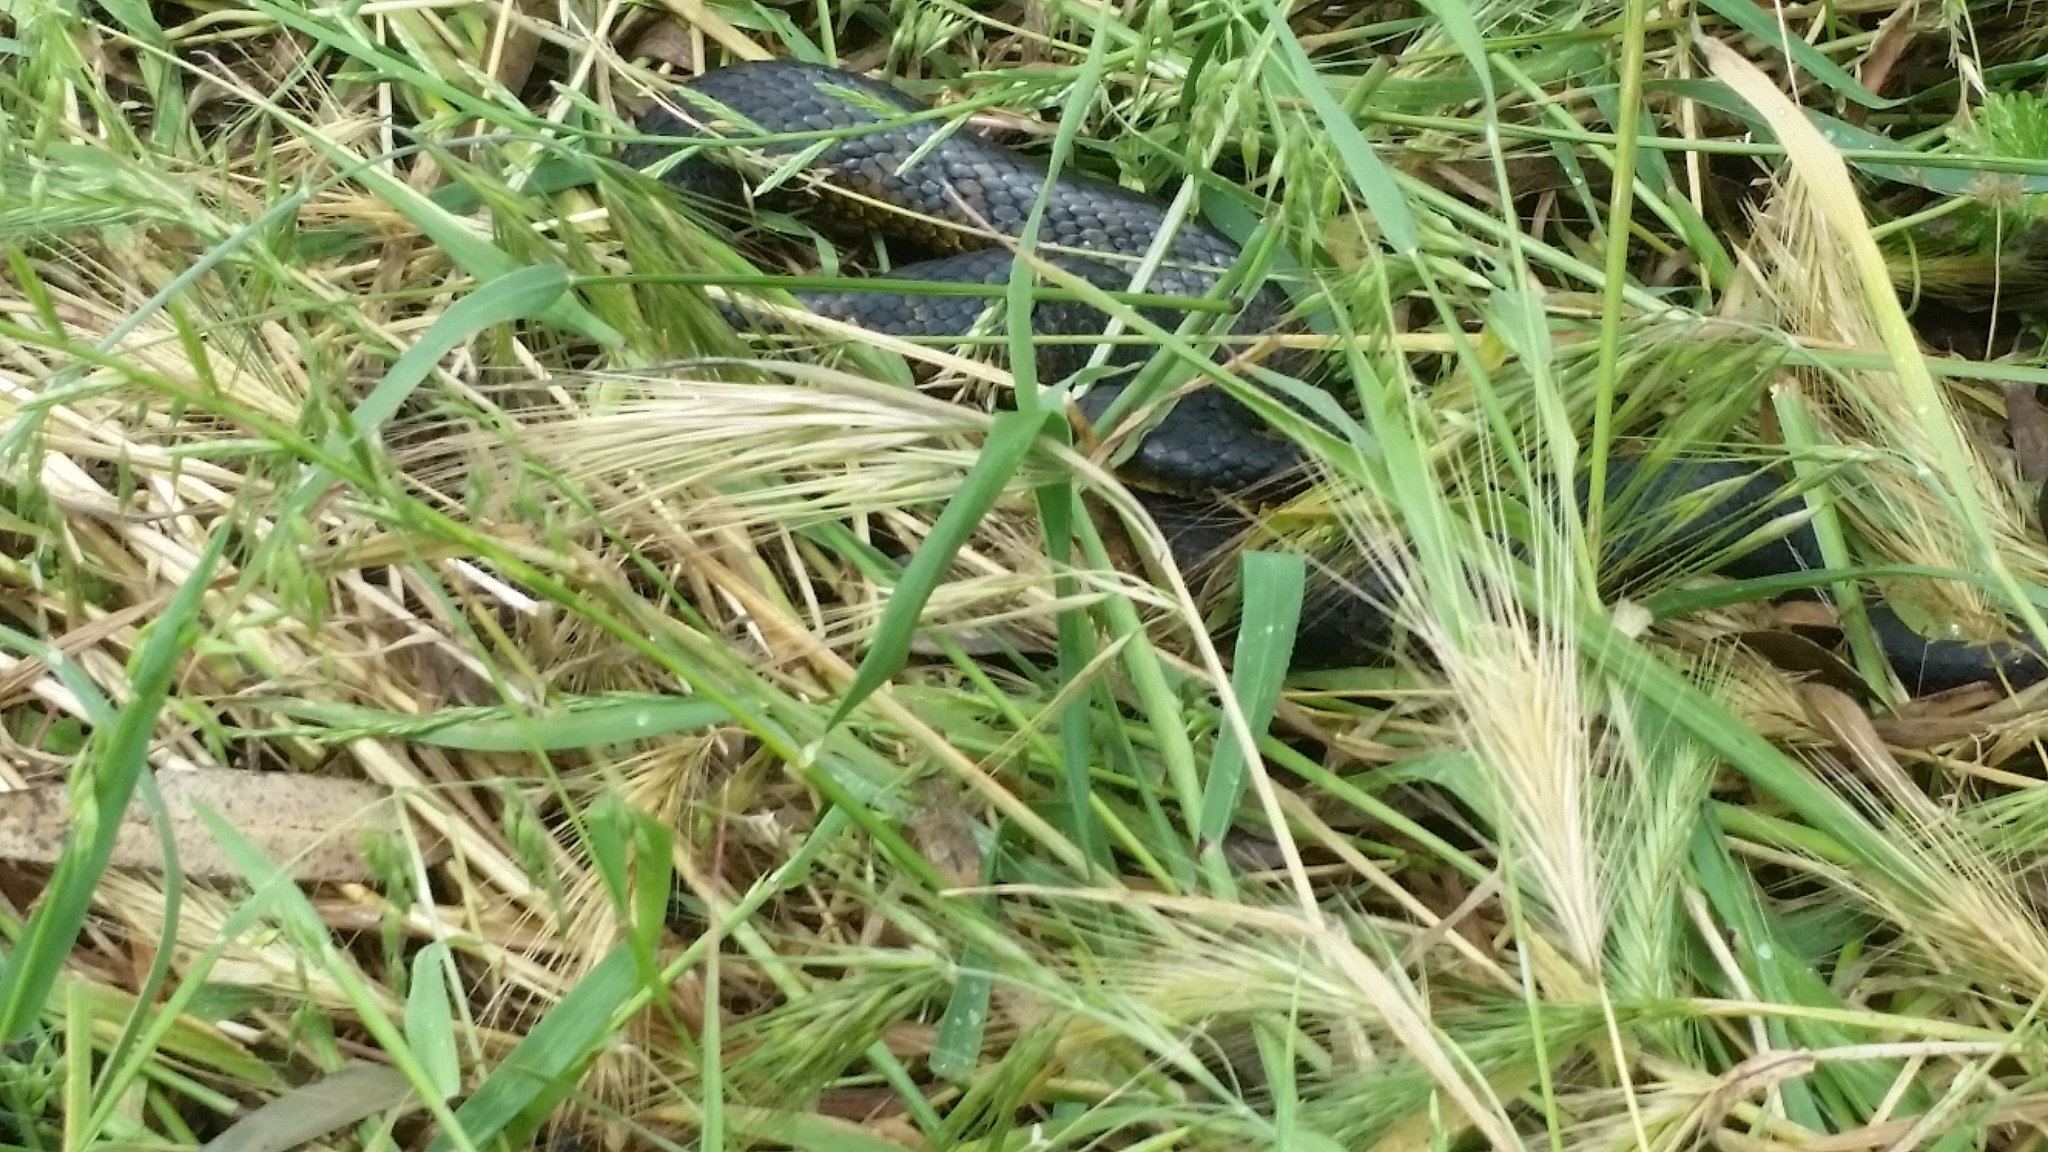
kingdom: Animalia
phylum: Chordata
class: Squamata
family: Elapidae
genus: Notechis
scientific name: Notechis scutatus
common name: Mainland tiger snake
